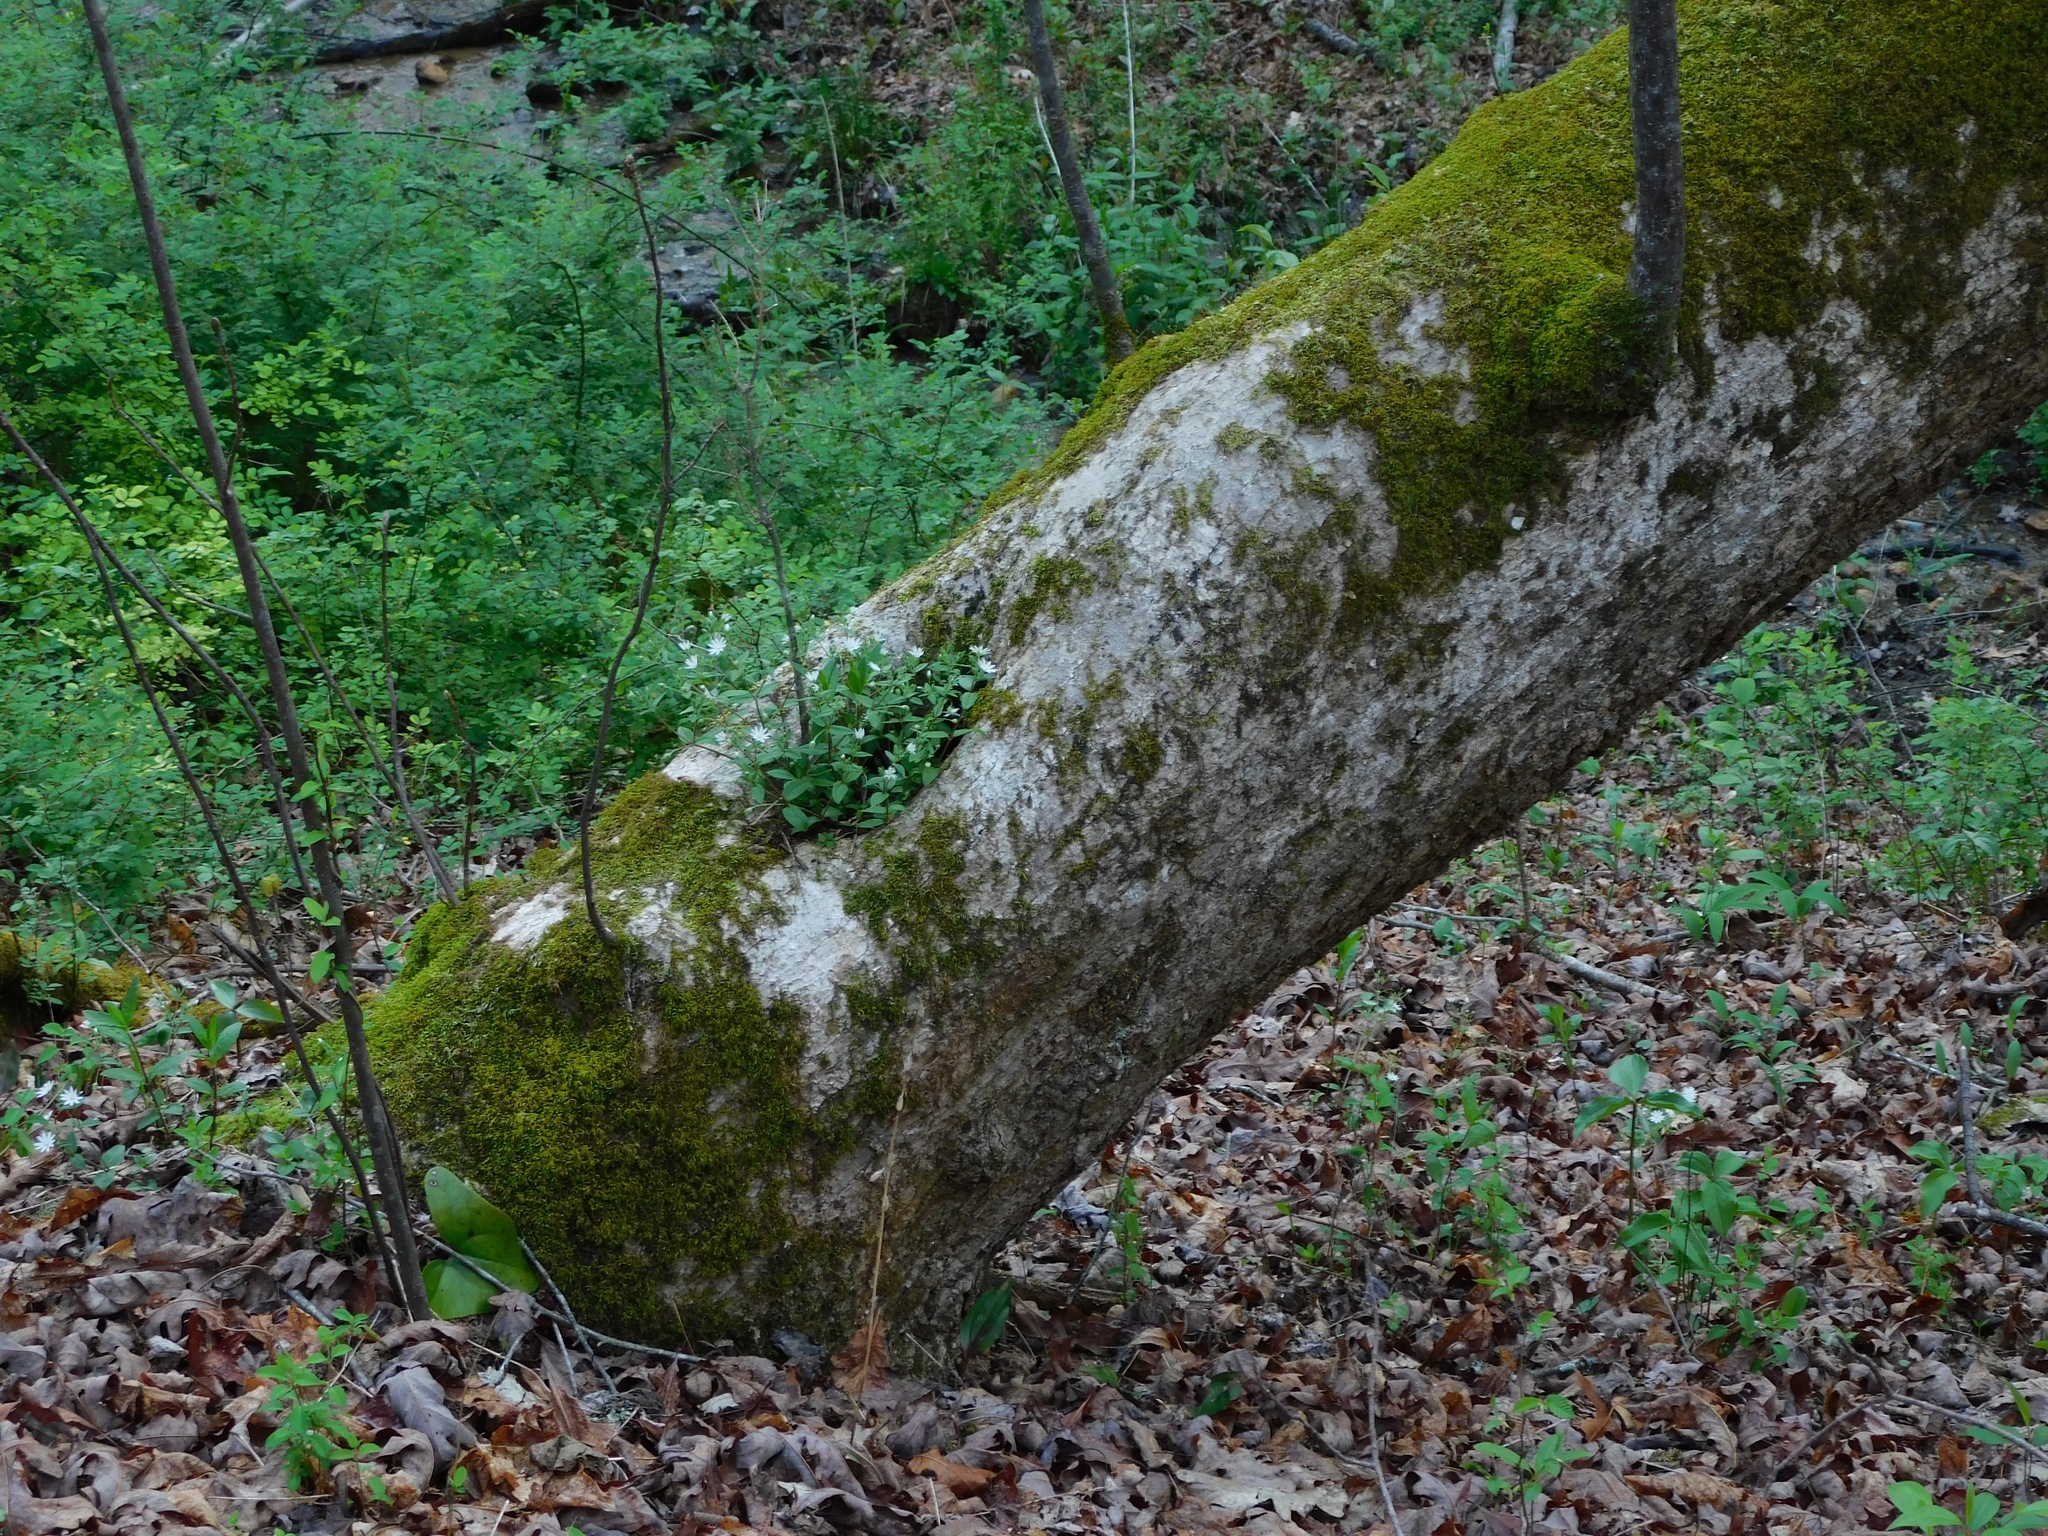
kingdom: Plantae
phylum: Tracheophyta
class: Magnoliopsida
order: Caryophyllales
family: Caryophyllaceae
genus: Stellaria
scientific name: Stellaria pubera
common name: Star chickweed
